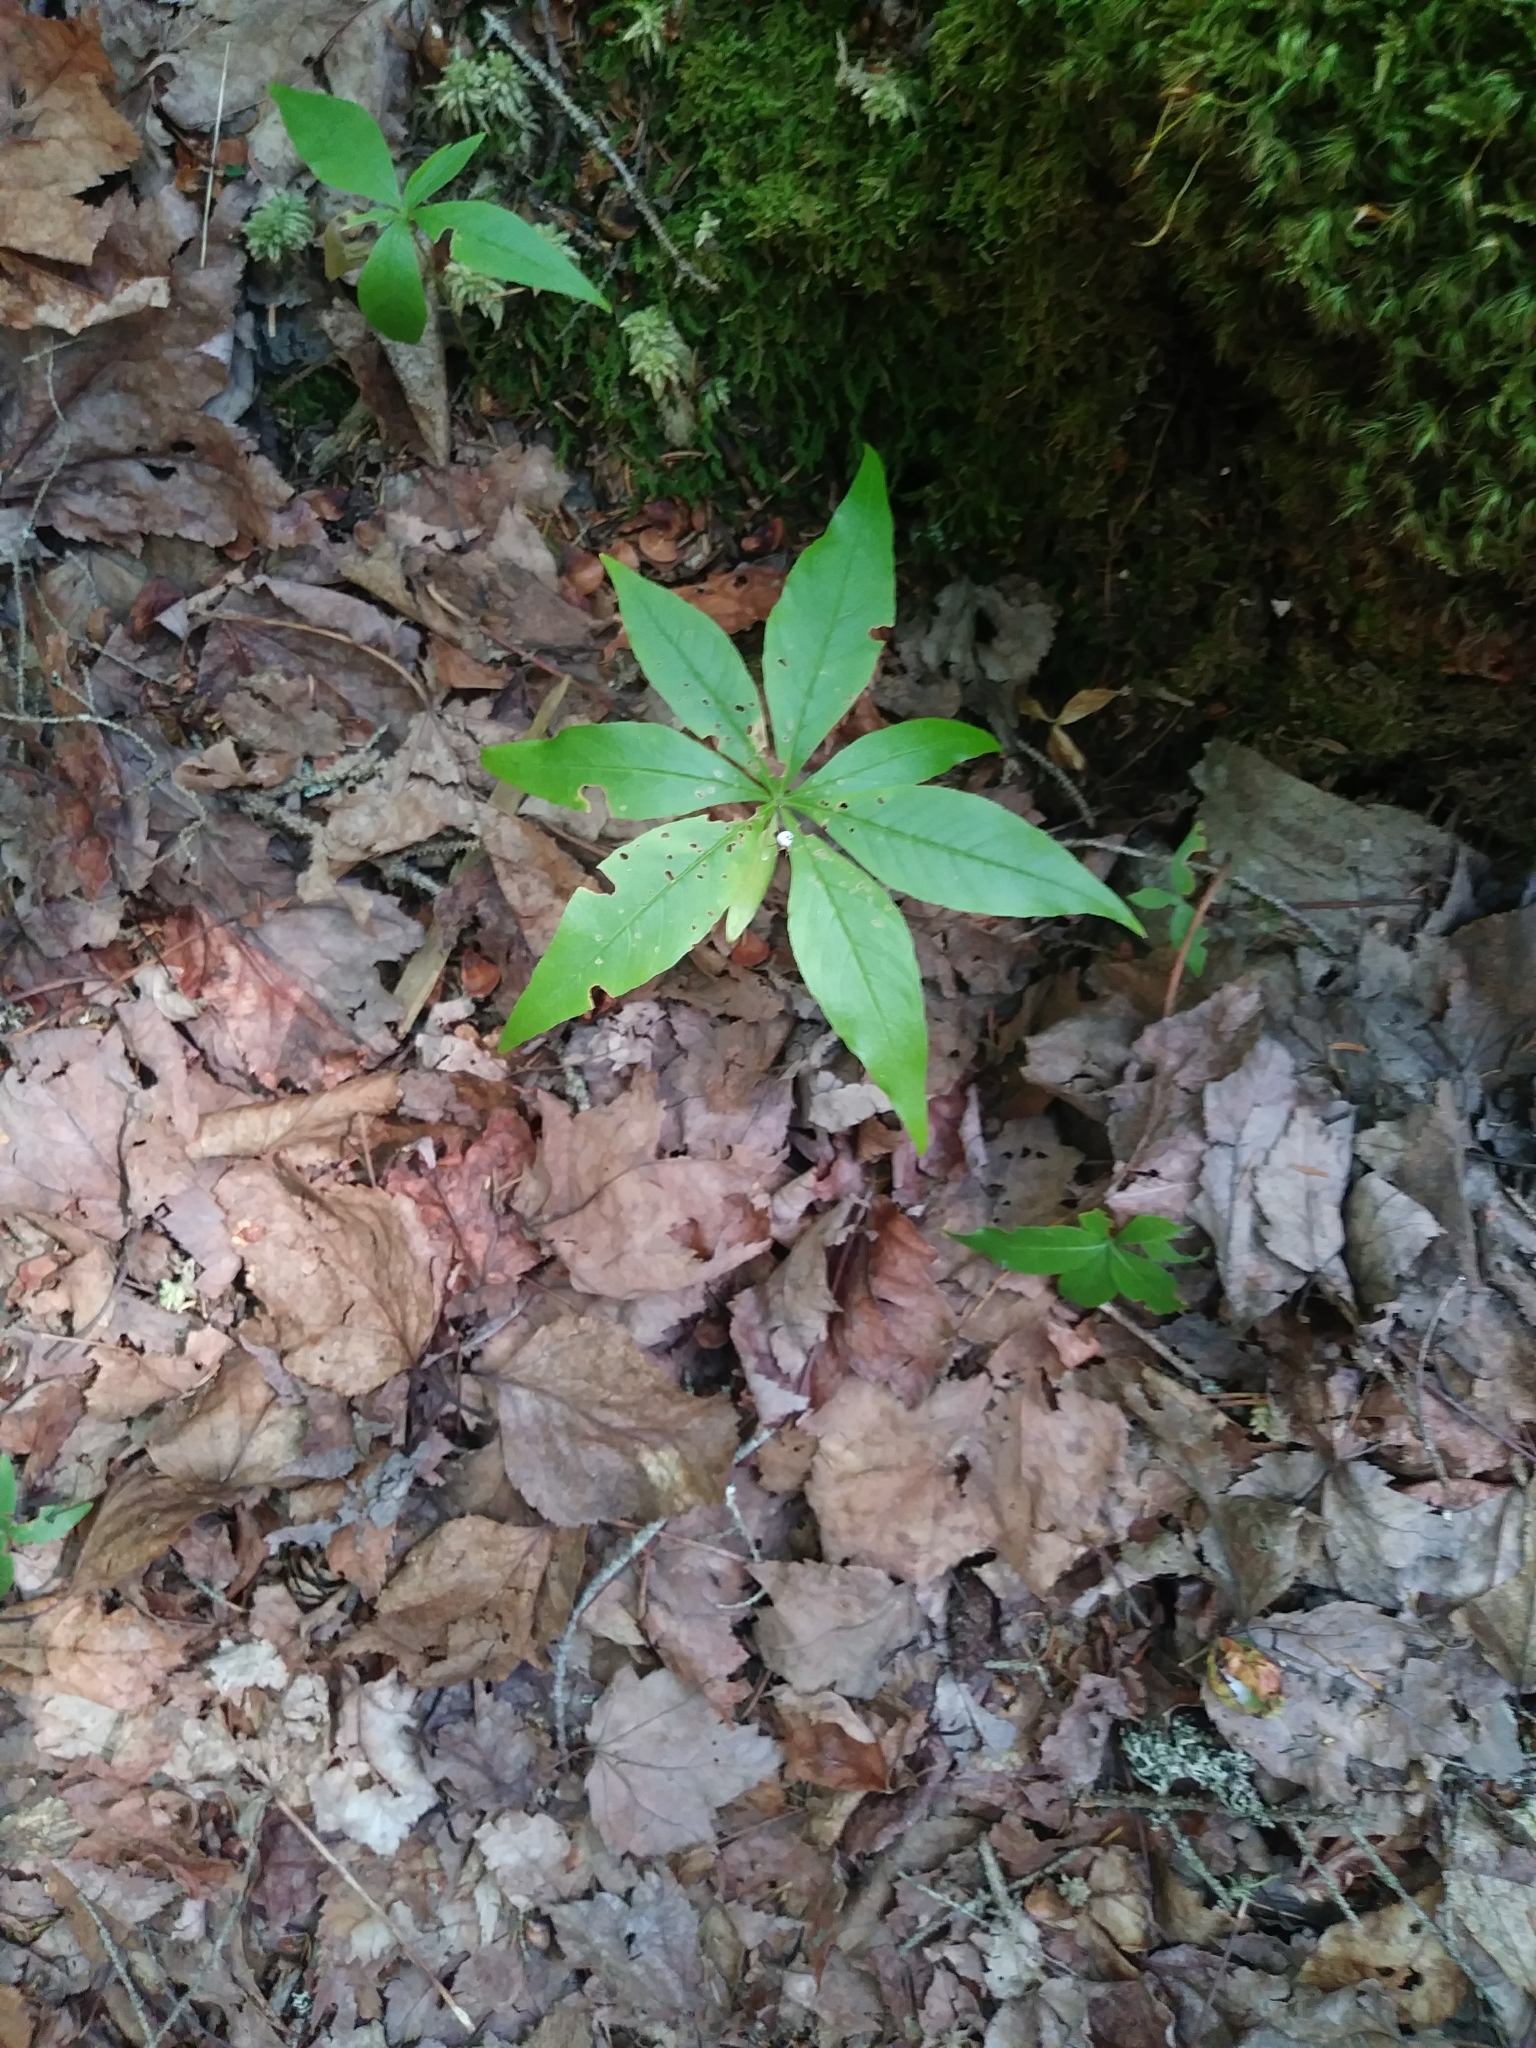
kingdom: Plantae
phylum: Tracheophyta
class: Magnoliopsida
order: Ericales
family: Primulaceae
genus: Lysimachia
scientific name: Lysimachia borealis
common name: American starflower
